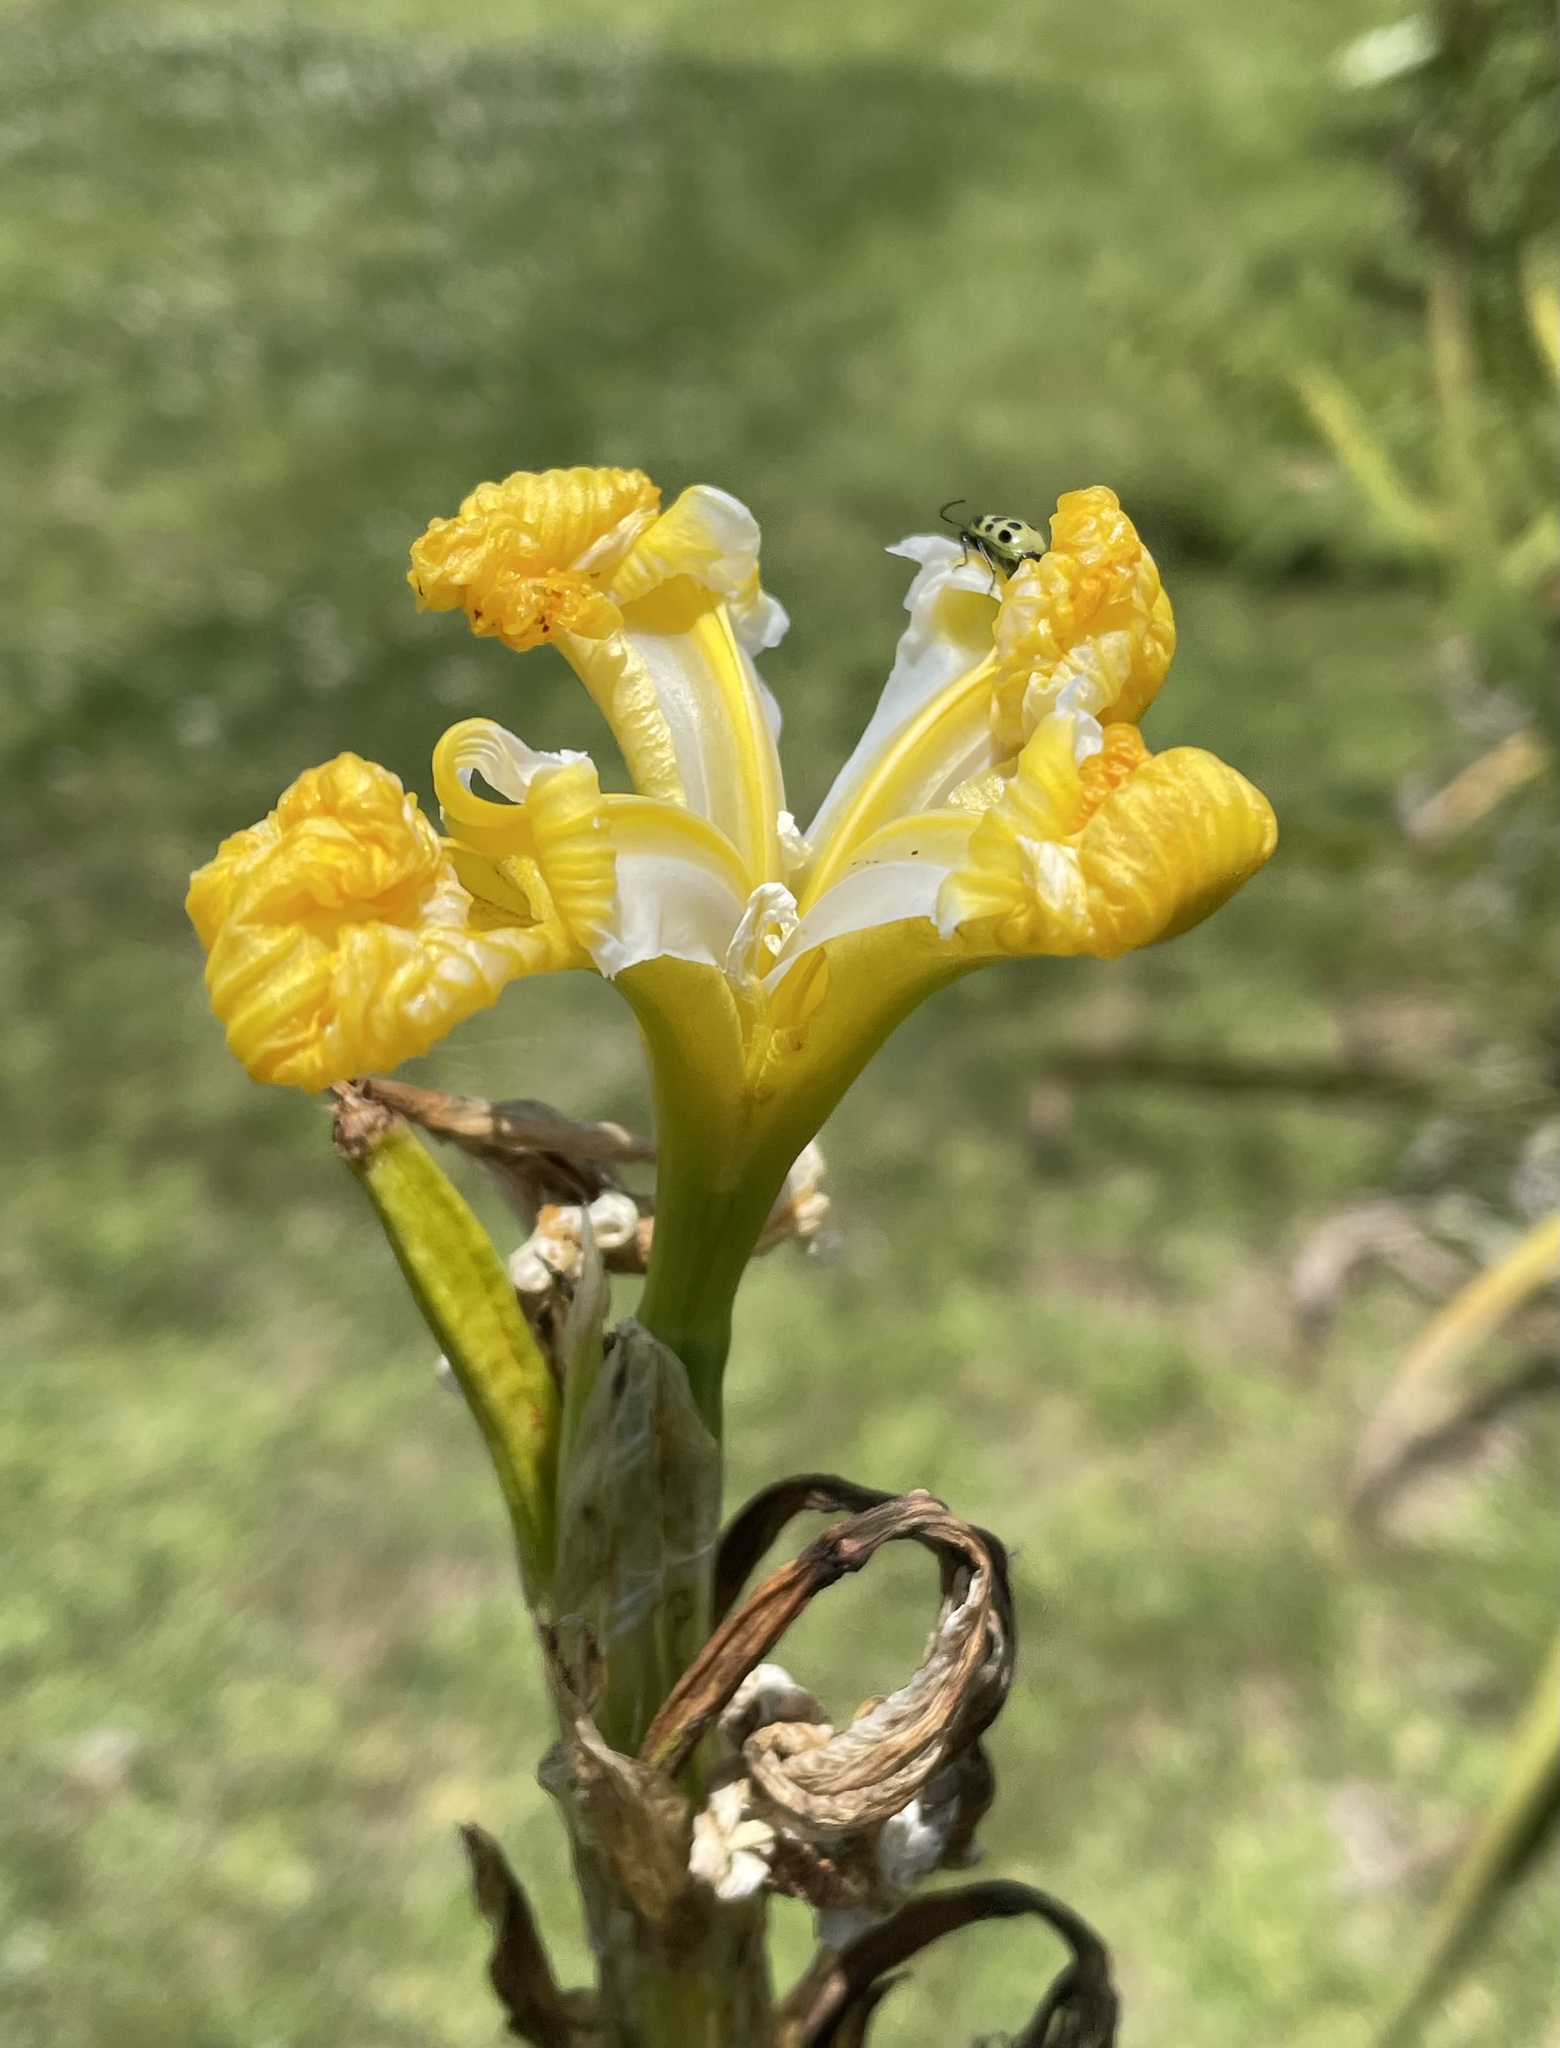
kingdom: Plantae
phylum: Tracheophyta
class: Liliopsida
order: Asparagales
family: Iridaceae
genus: Iris
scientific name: Iris pseudacorus
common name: Yellow flag
